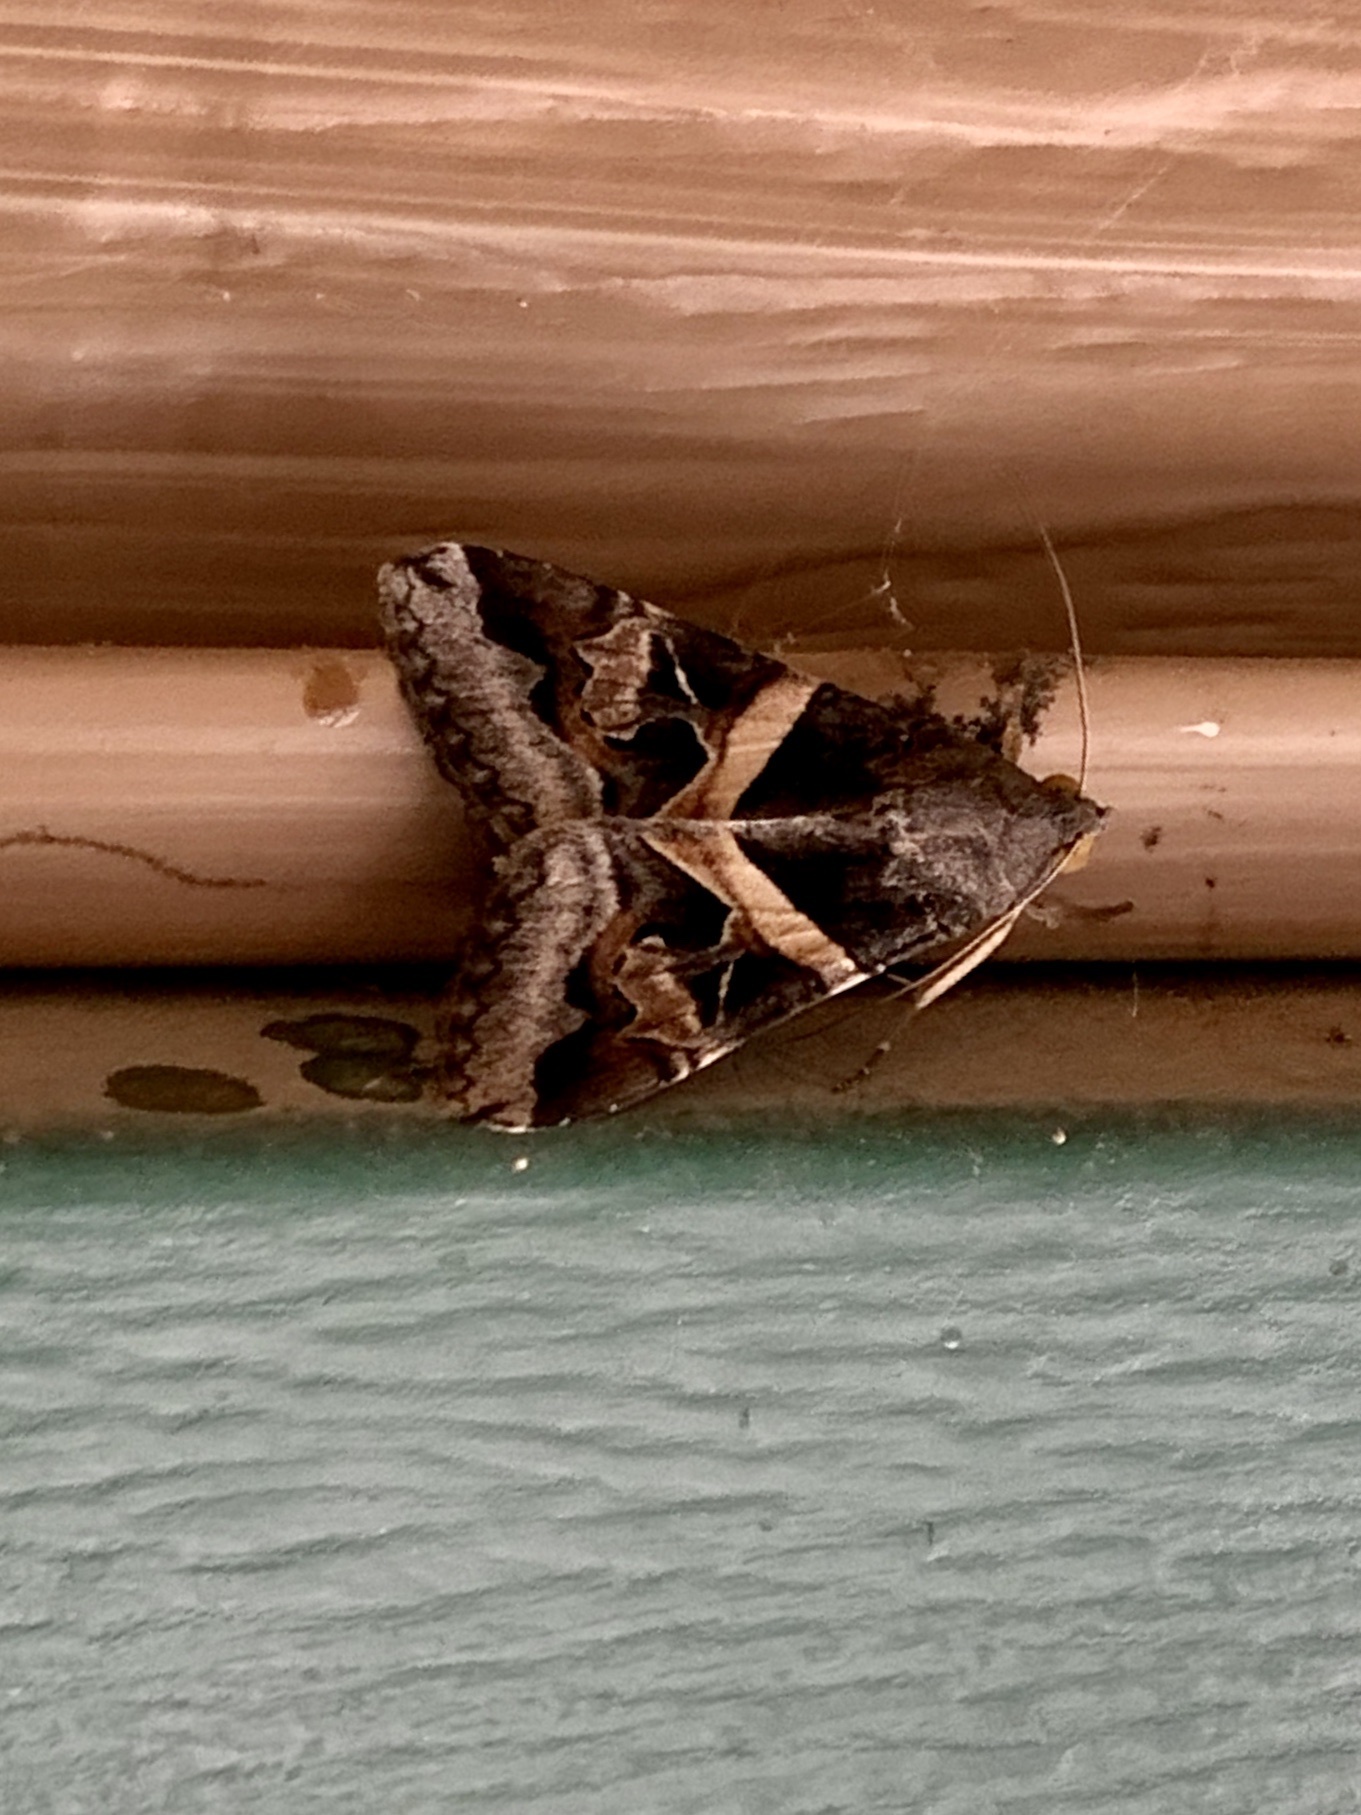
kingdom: Animalia
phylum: Arthropoda
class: Insecta
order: Lepidoptera
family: Erebidae
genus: Melipotis
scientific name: Melipotis indomita
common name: Moth
